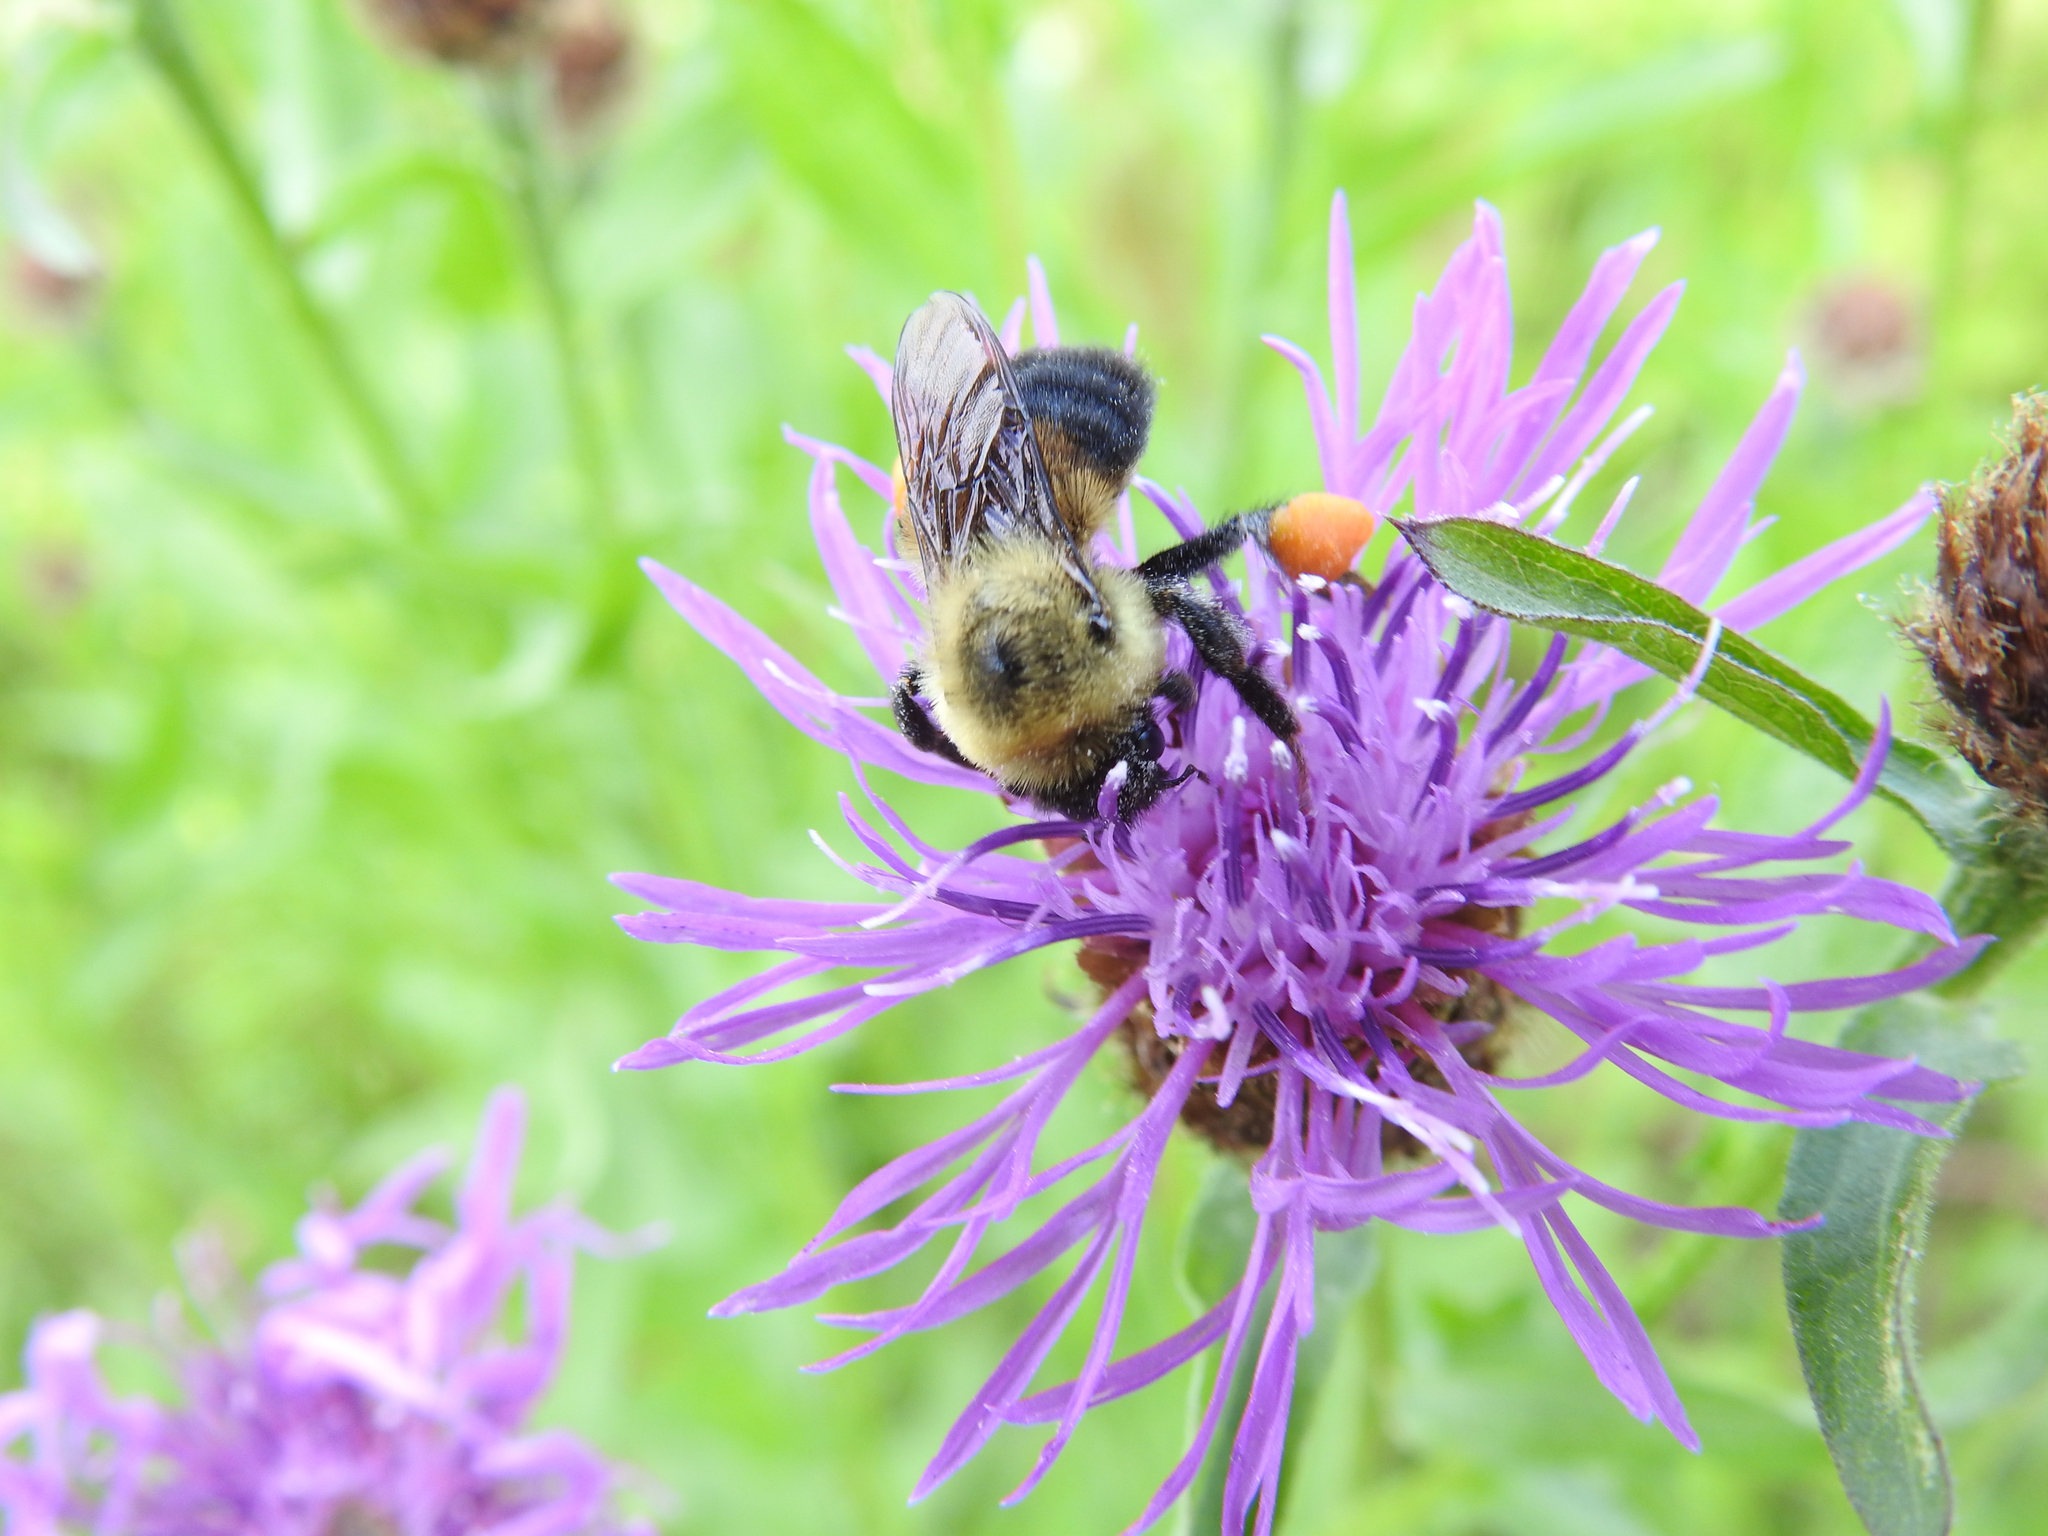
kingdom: Animalia
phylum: Arthropoda
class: Insecta
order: Hymenoptera
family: Apidae
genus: Bombus
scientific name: Bombus bimaculatus
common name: Two-spotted bumble bee
